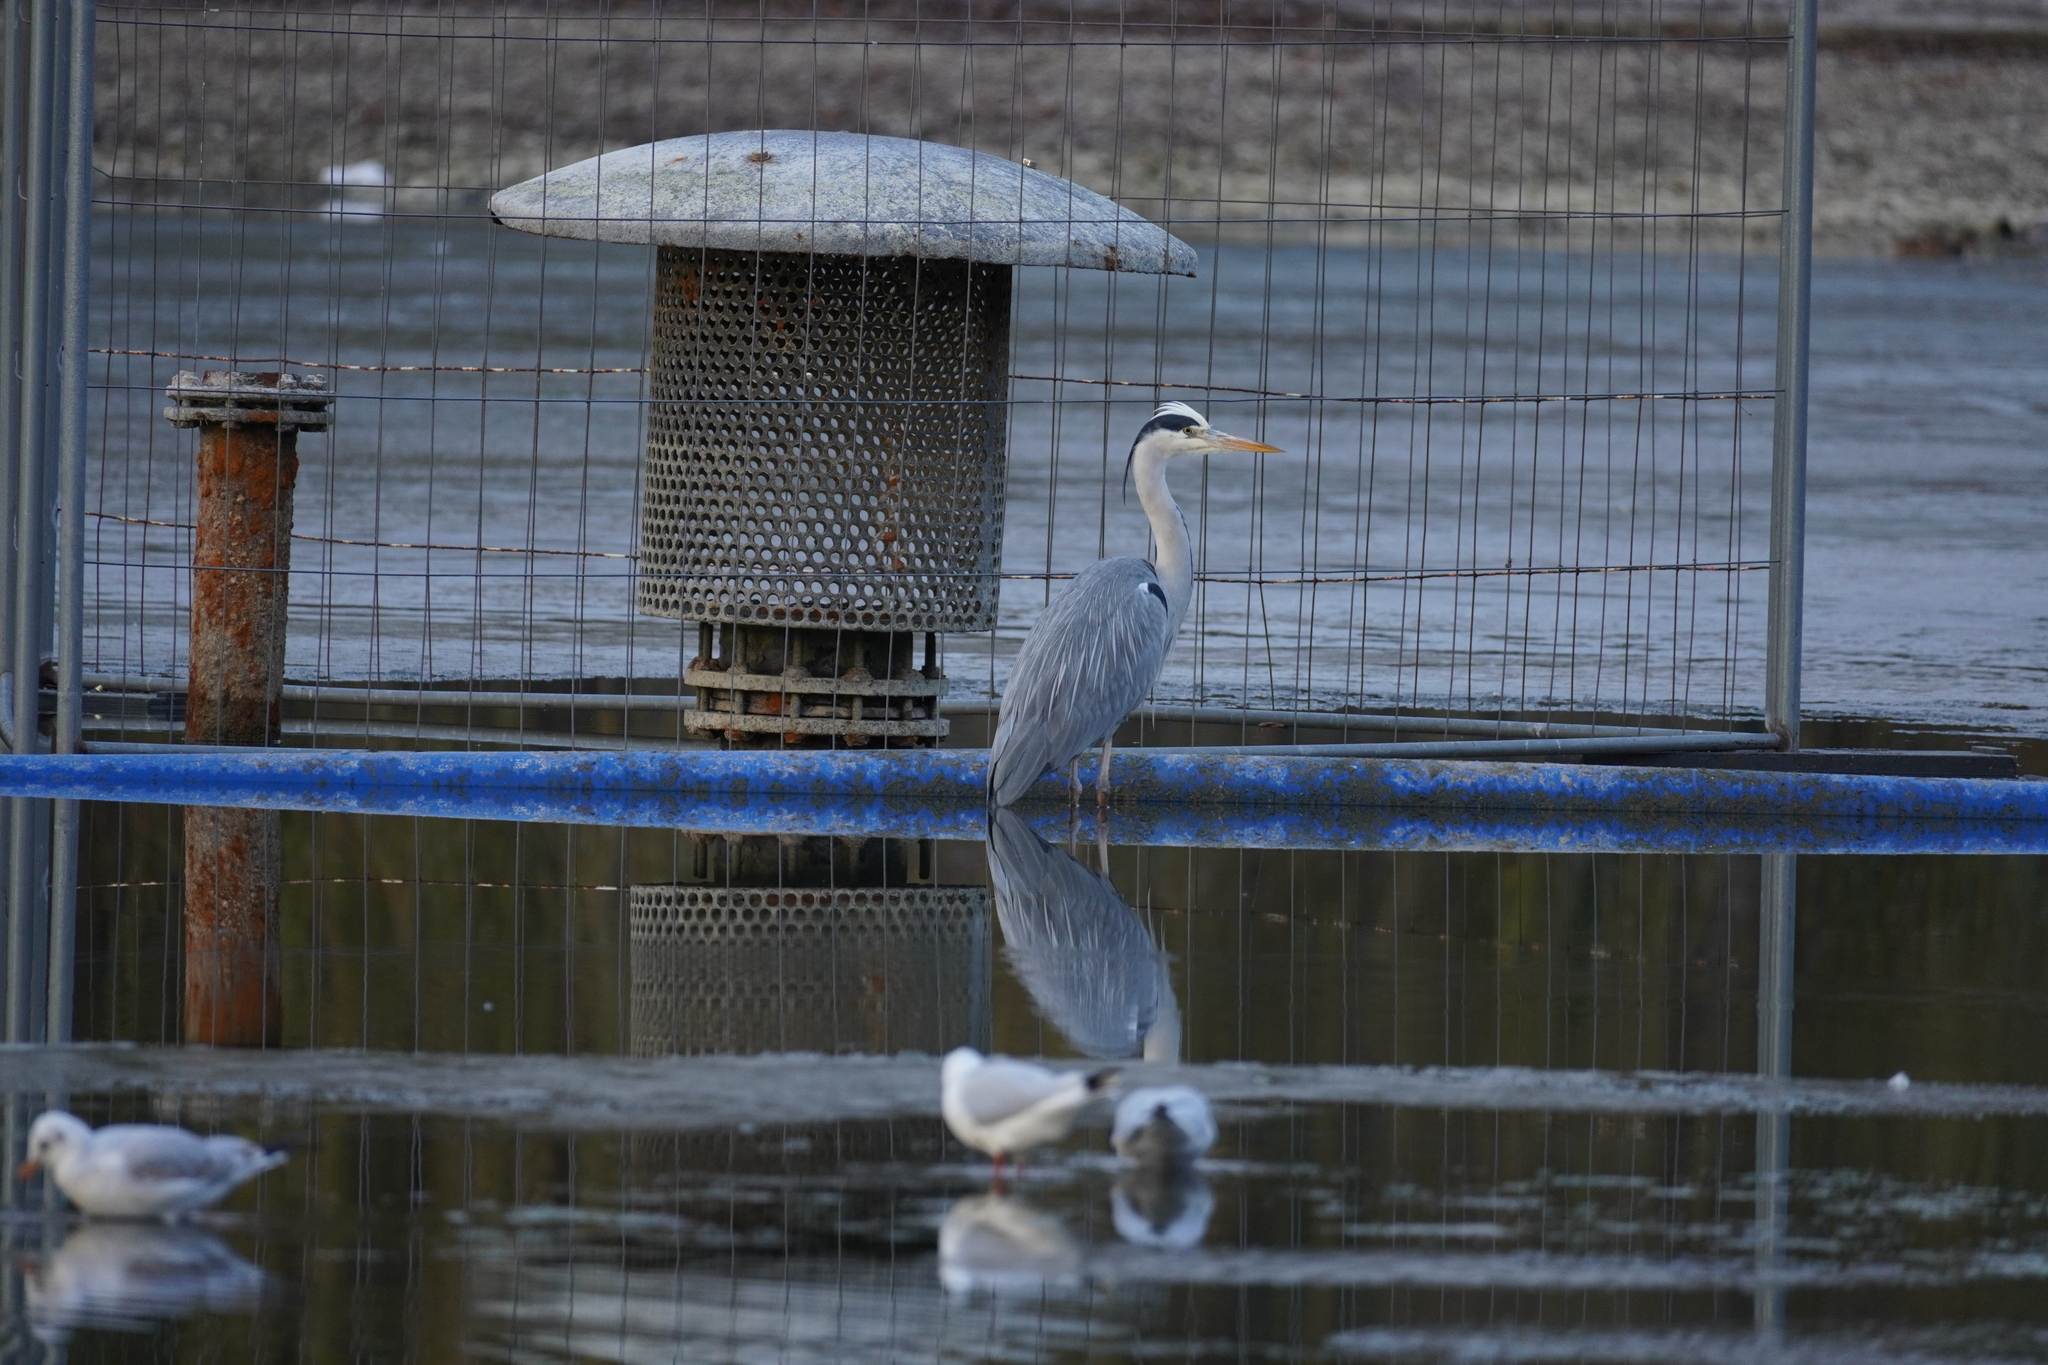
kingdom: Animalia
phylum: Chordata
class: Aves
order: Pelecaniformes
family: Ardeidae
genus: Ardea
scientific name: Ardea cinerea
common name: Grey heron
